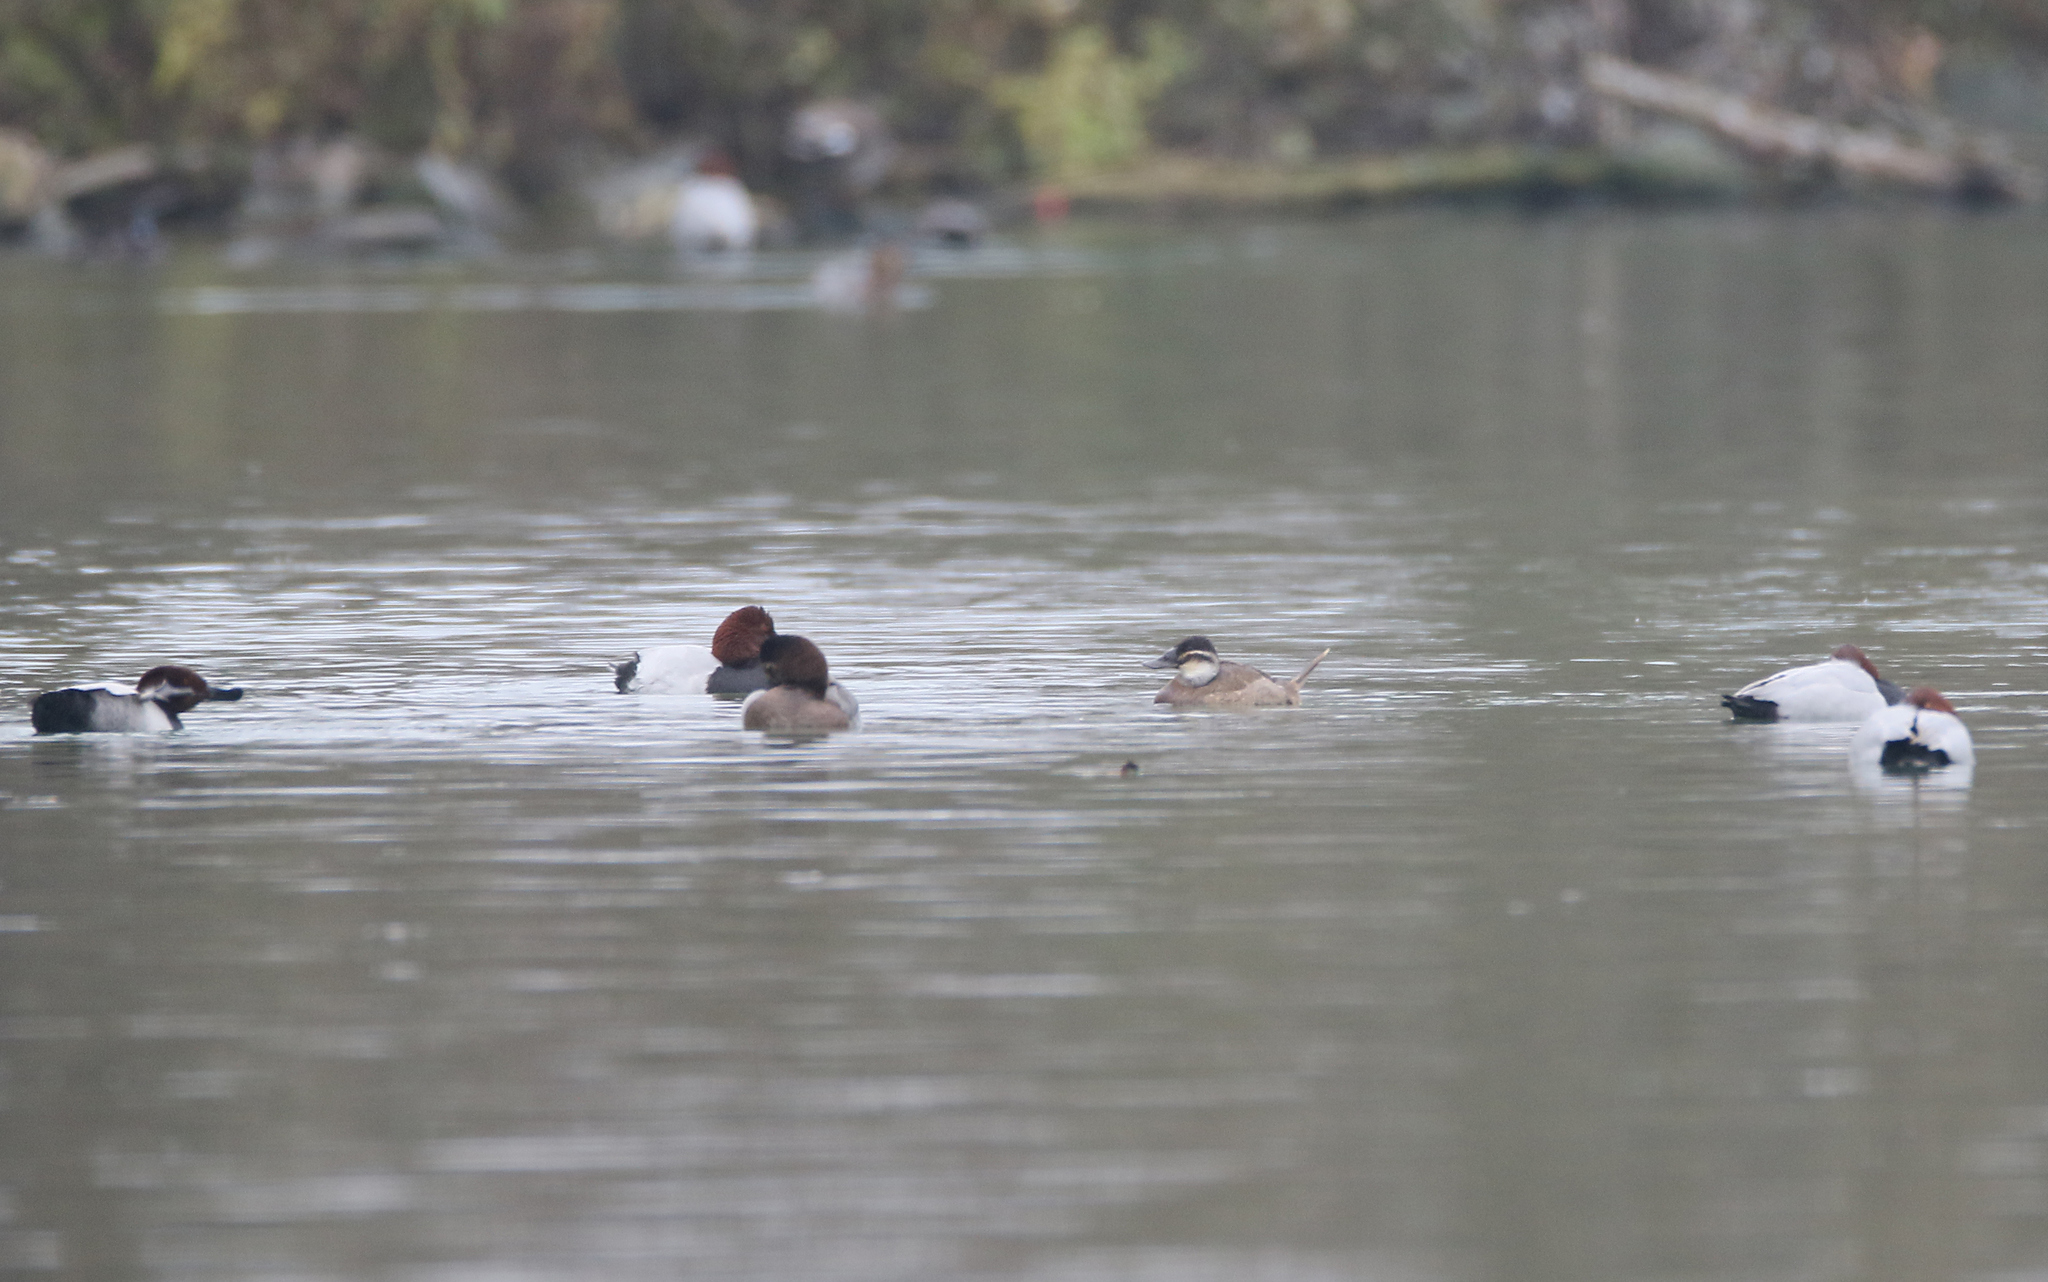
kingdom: Animalia
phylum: Chordata
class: Aves
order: Anseriformes
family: Anatidae
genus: Oxyura
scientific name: Oxyura leucocephala
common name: White-headed duck
